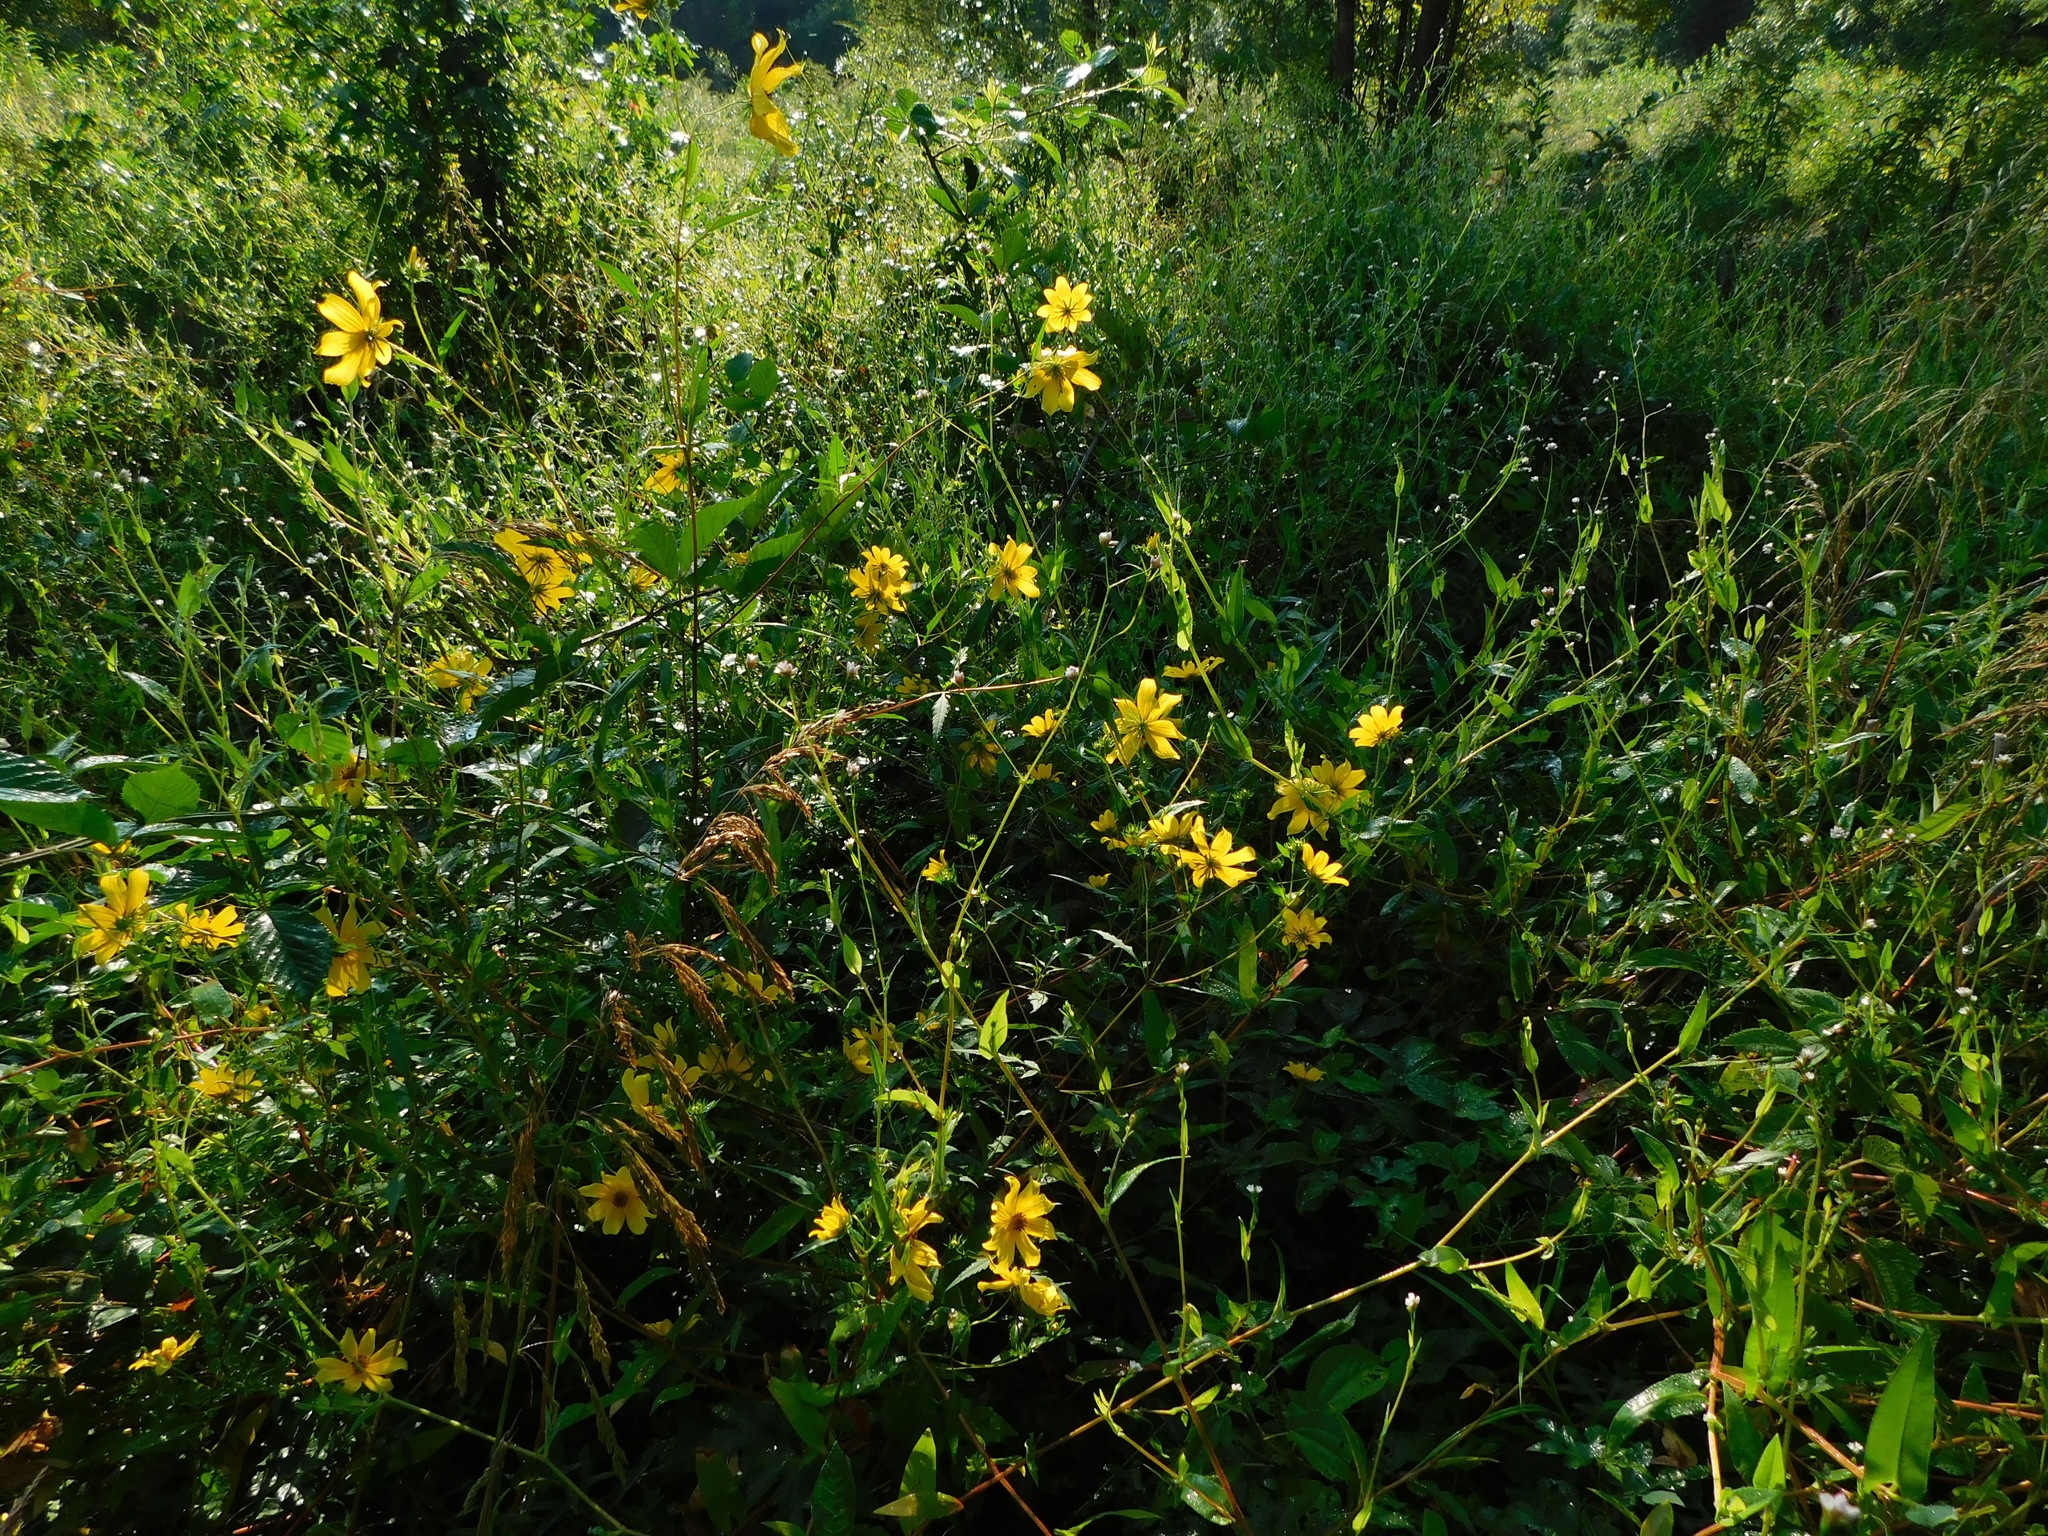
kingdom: Plantae
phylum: Tracheophyta
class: Magnoliopsida
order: Asterales
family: Asteraceae
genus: Bidens
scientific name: Bidens polylepis
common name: Awnless beggarticks
